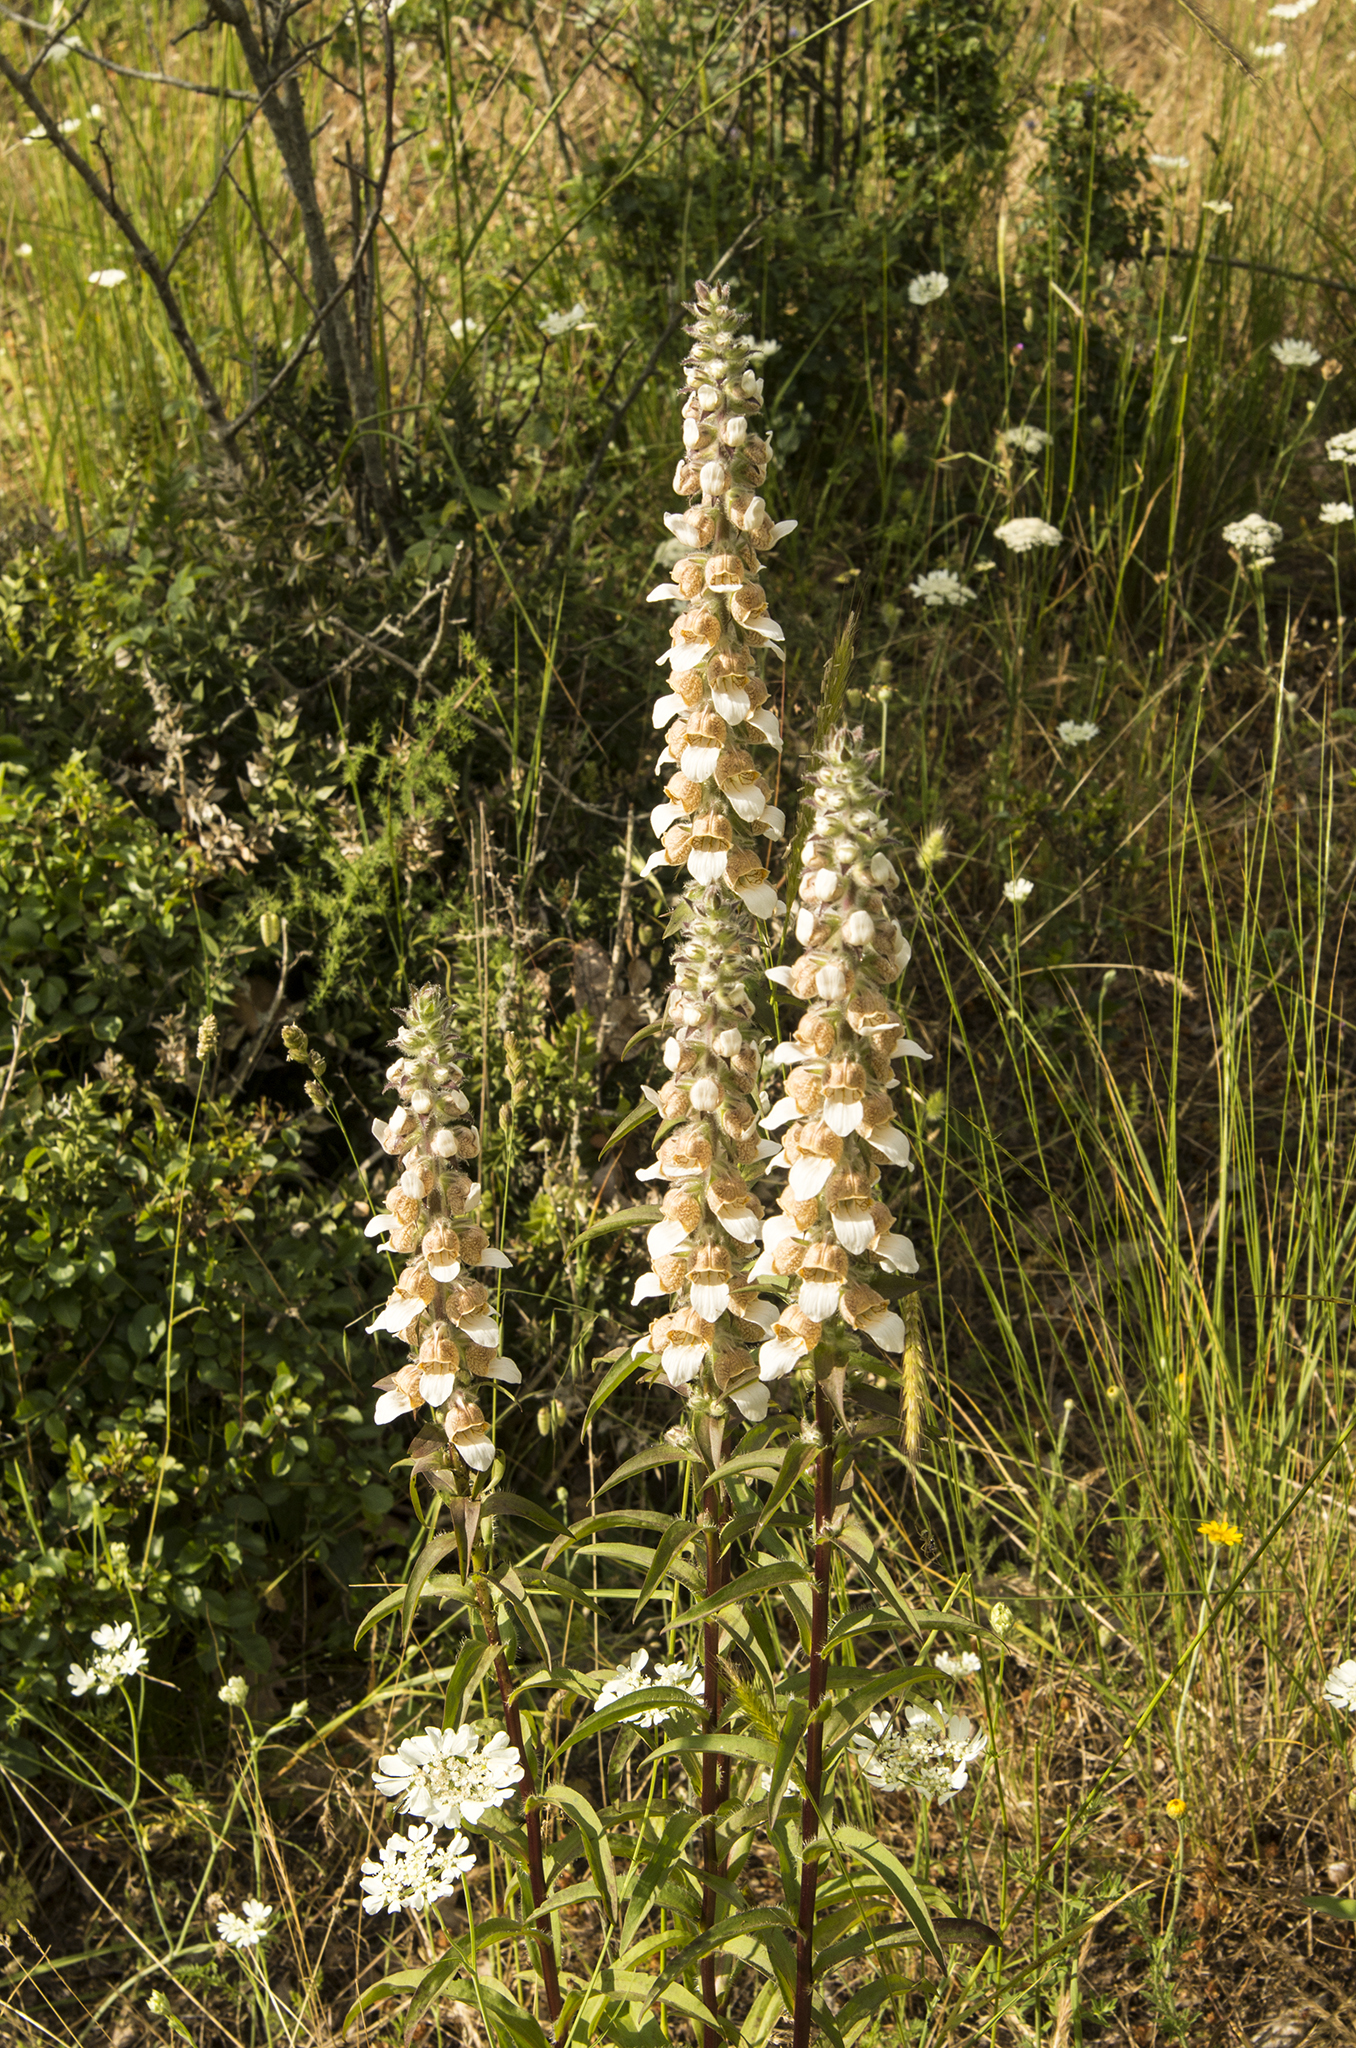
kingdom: Plantae
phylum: Tracheophyta
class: Magnoliopsida
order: Lamiales
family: Plantaginaceae
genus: Digitalis
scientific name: Digitalis lanata
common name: Grecian foxglove
